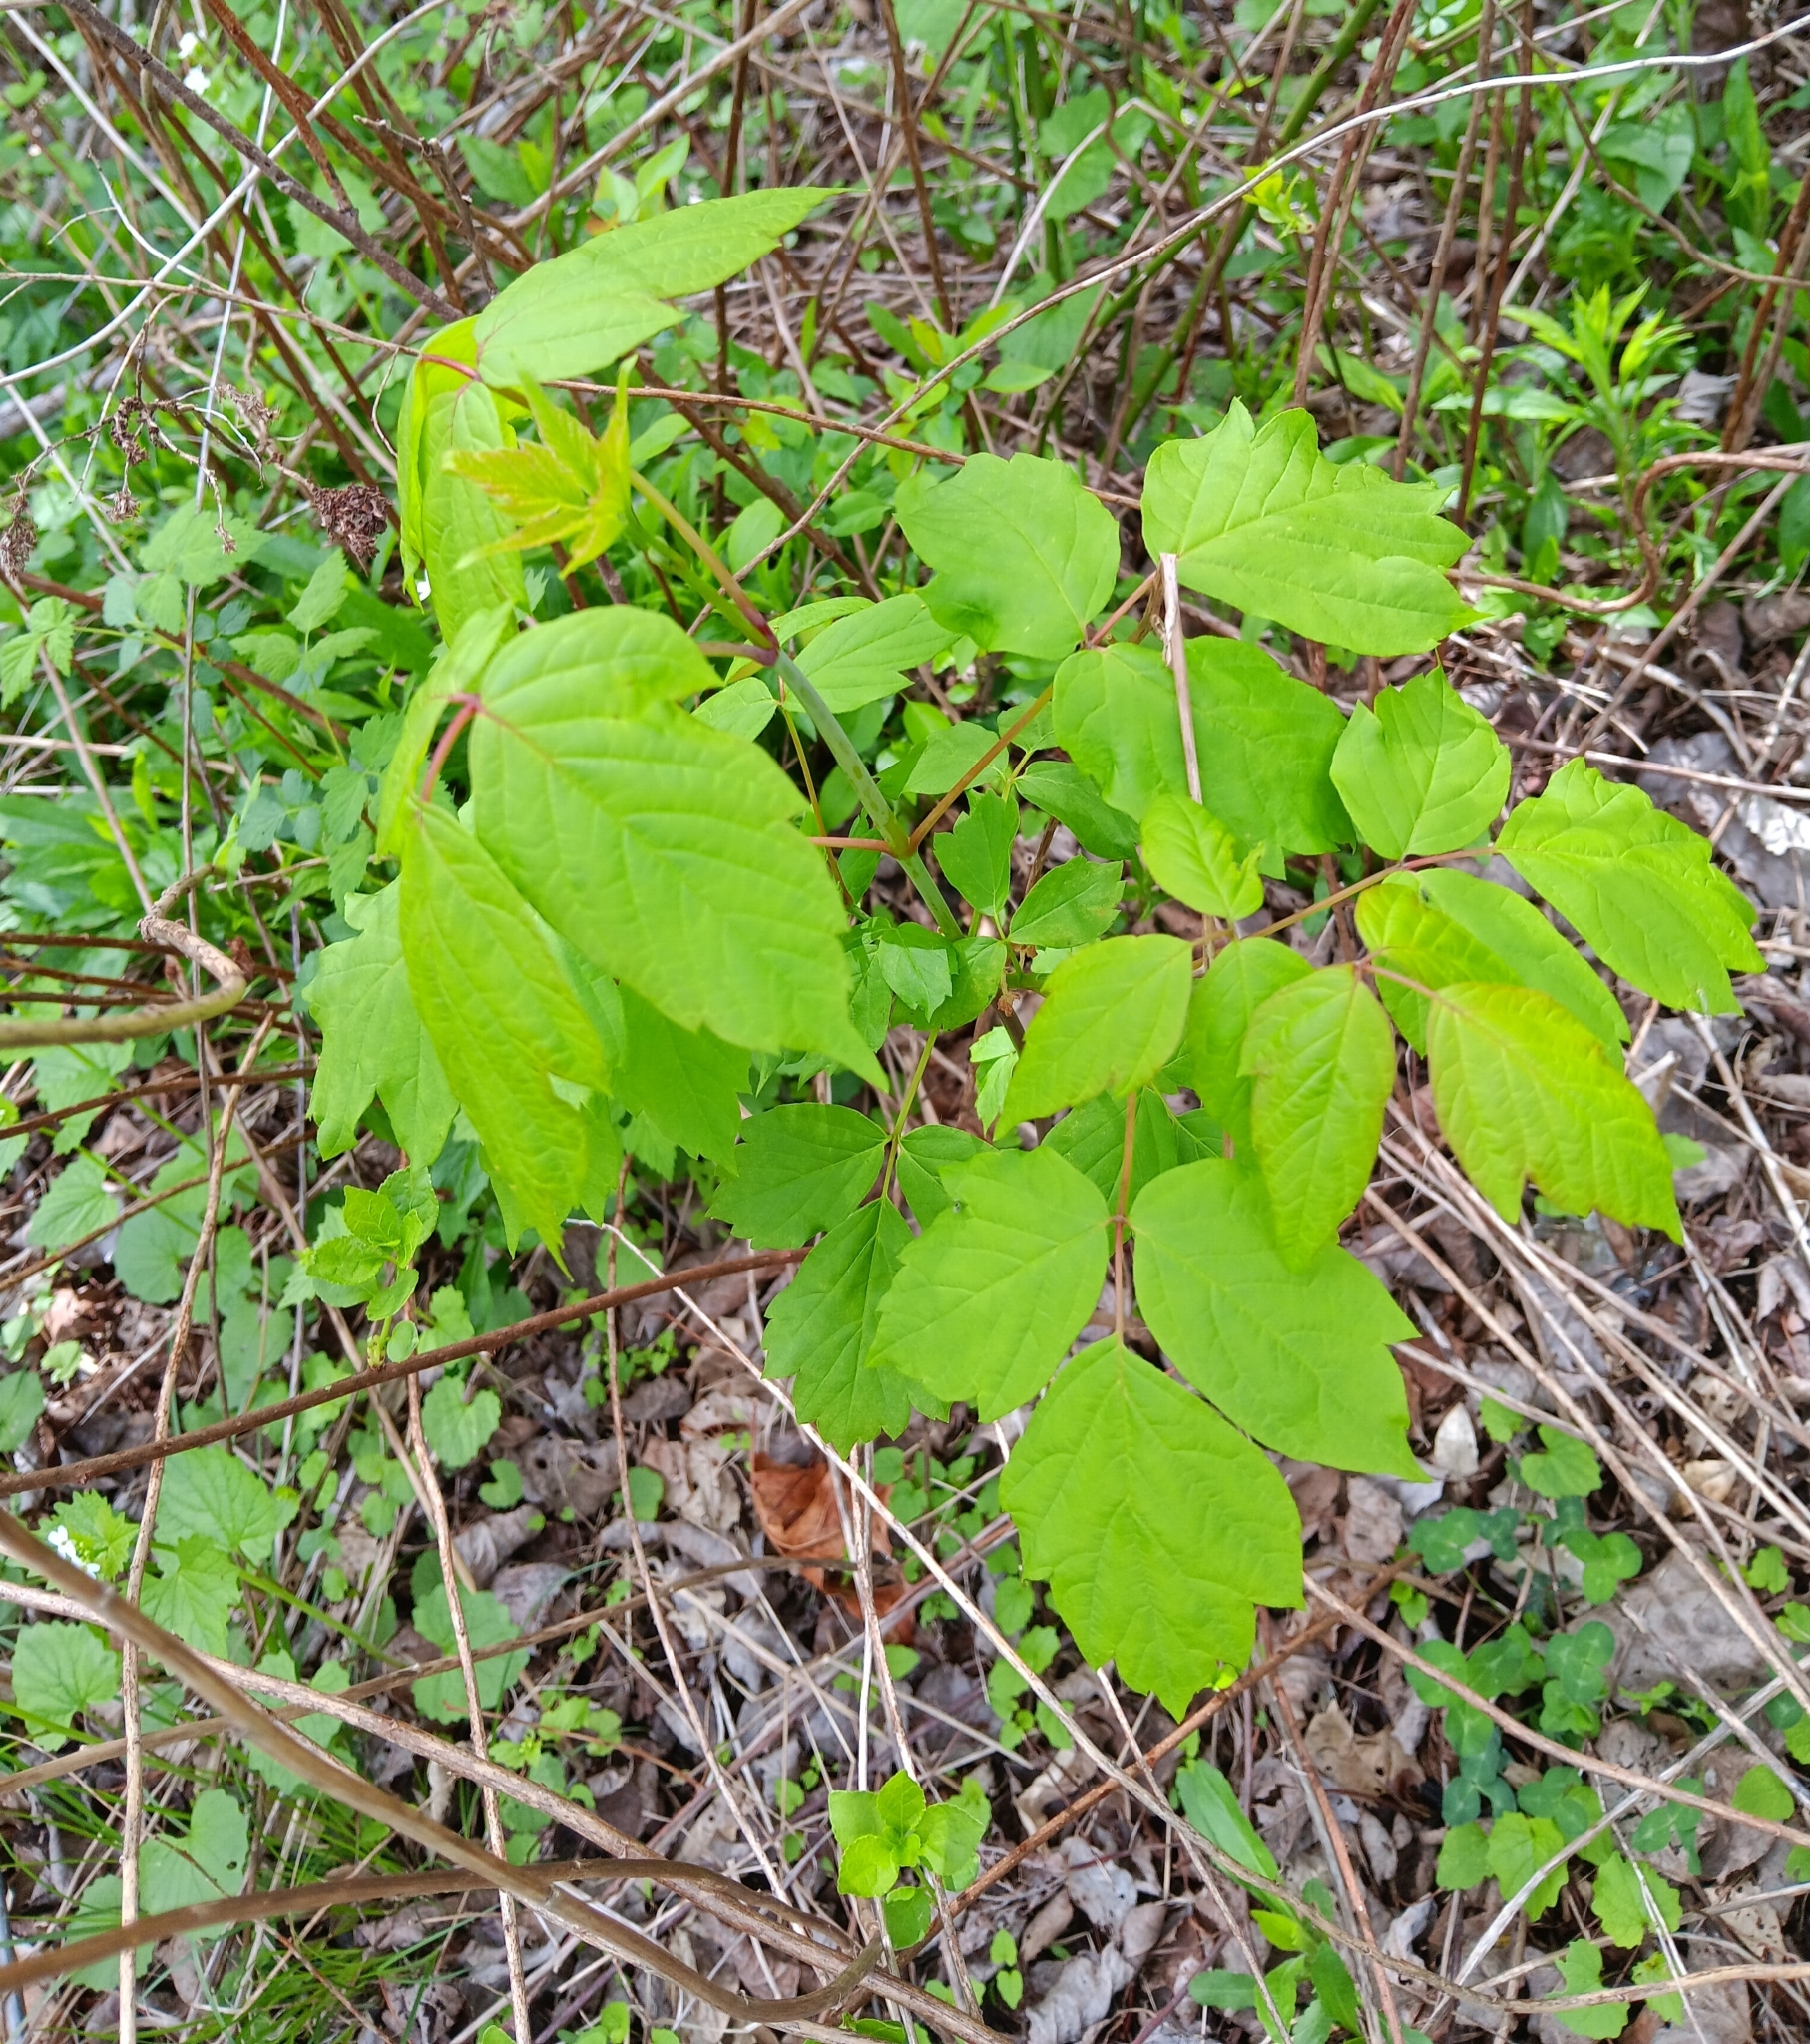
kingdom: Plantae
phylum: Tracheophyta
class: Magnoliopsida
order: Sapindales
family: Sapindaceae
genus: Acer
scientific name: Acer negundo
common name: Ashleaf maple
